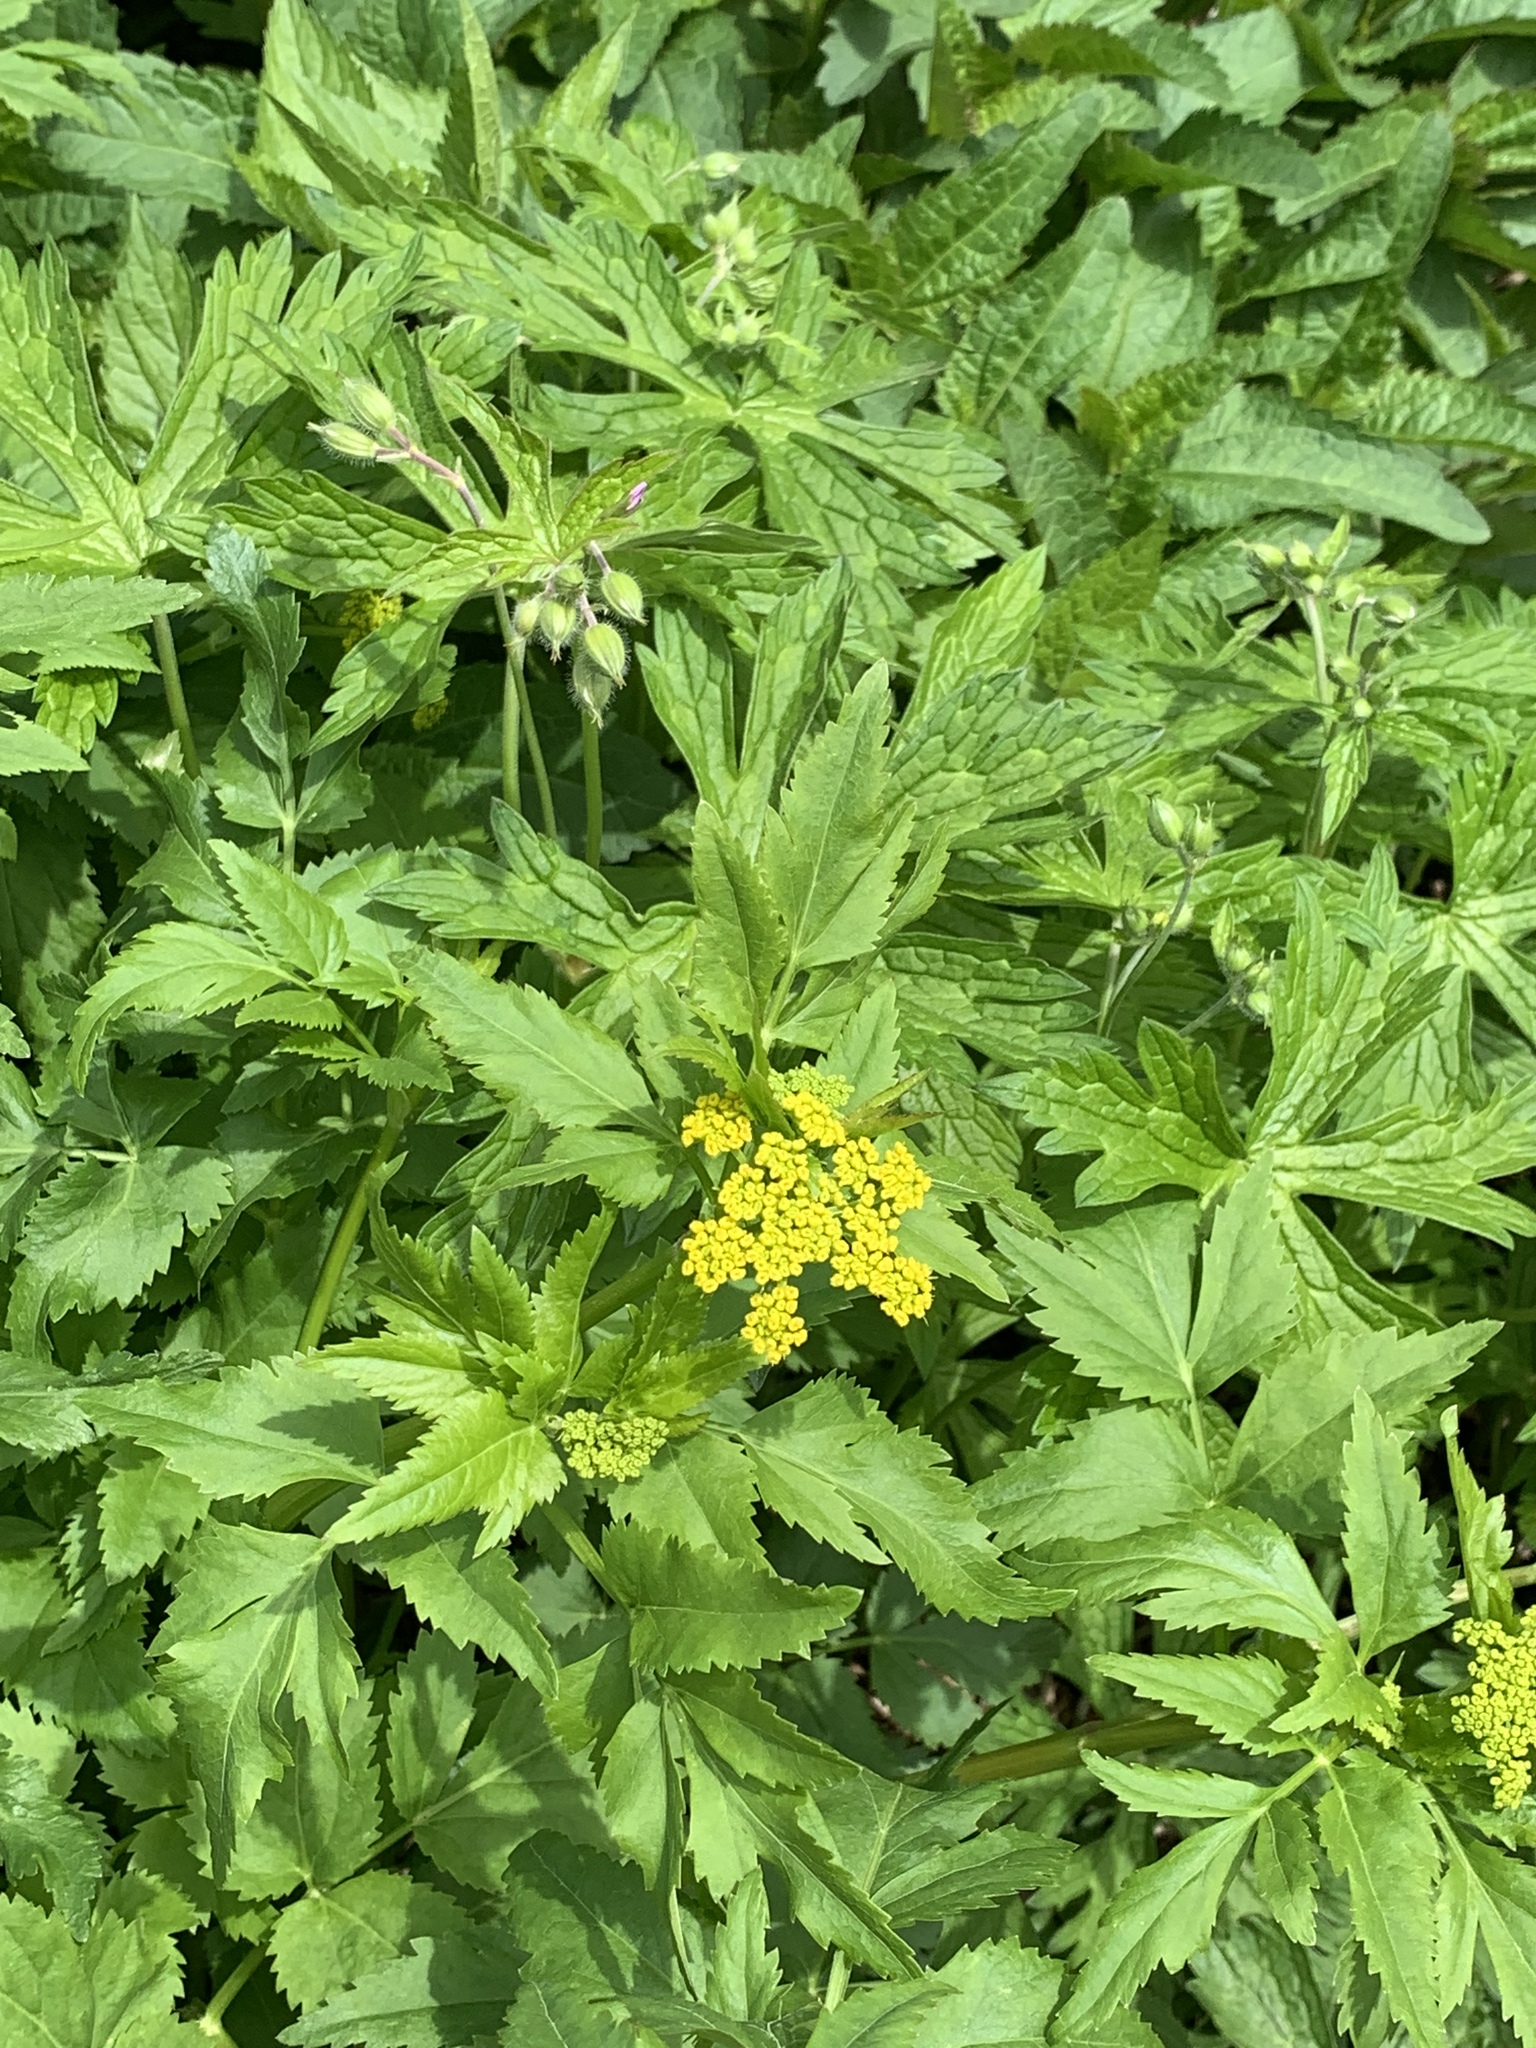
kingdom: Plantae
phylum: Tracheophyta
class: Magnoliopsida
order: Apiales
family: Apiaceae
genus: Zizia
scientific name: Zizia aurea
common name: Golden alexanders
